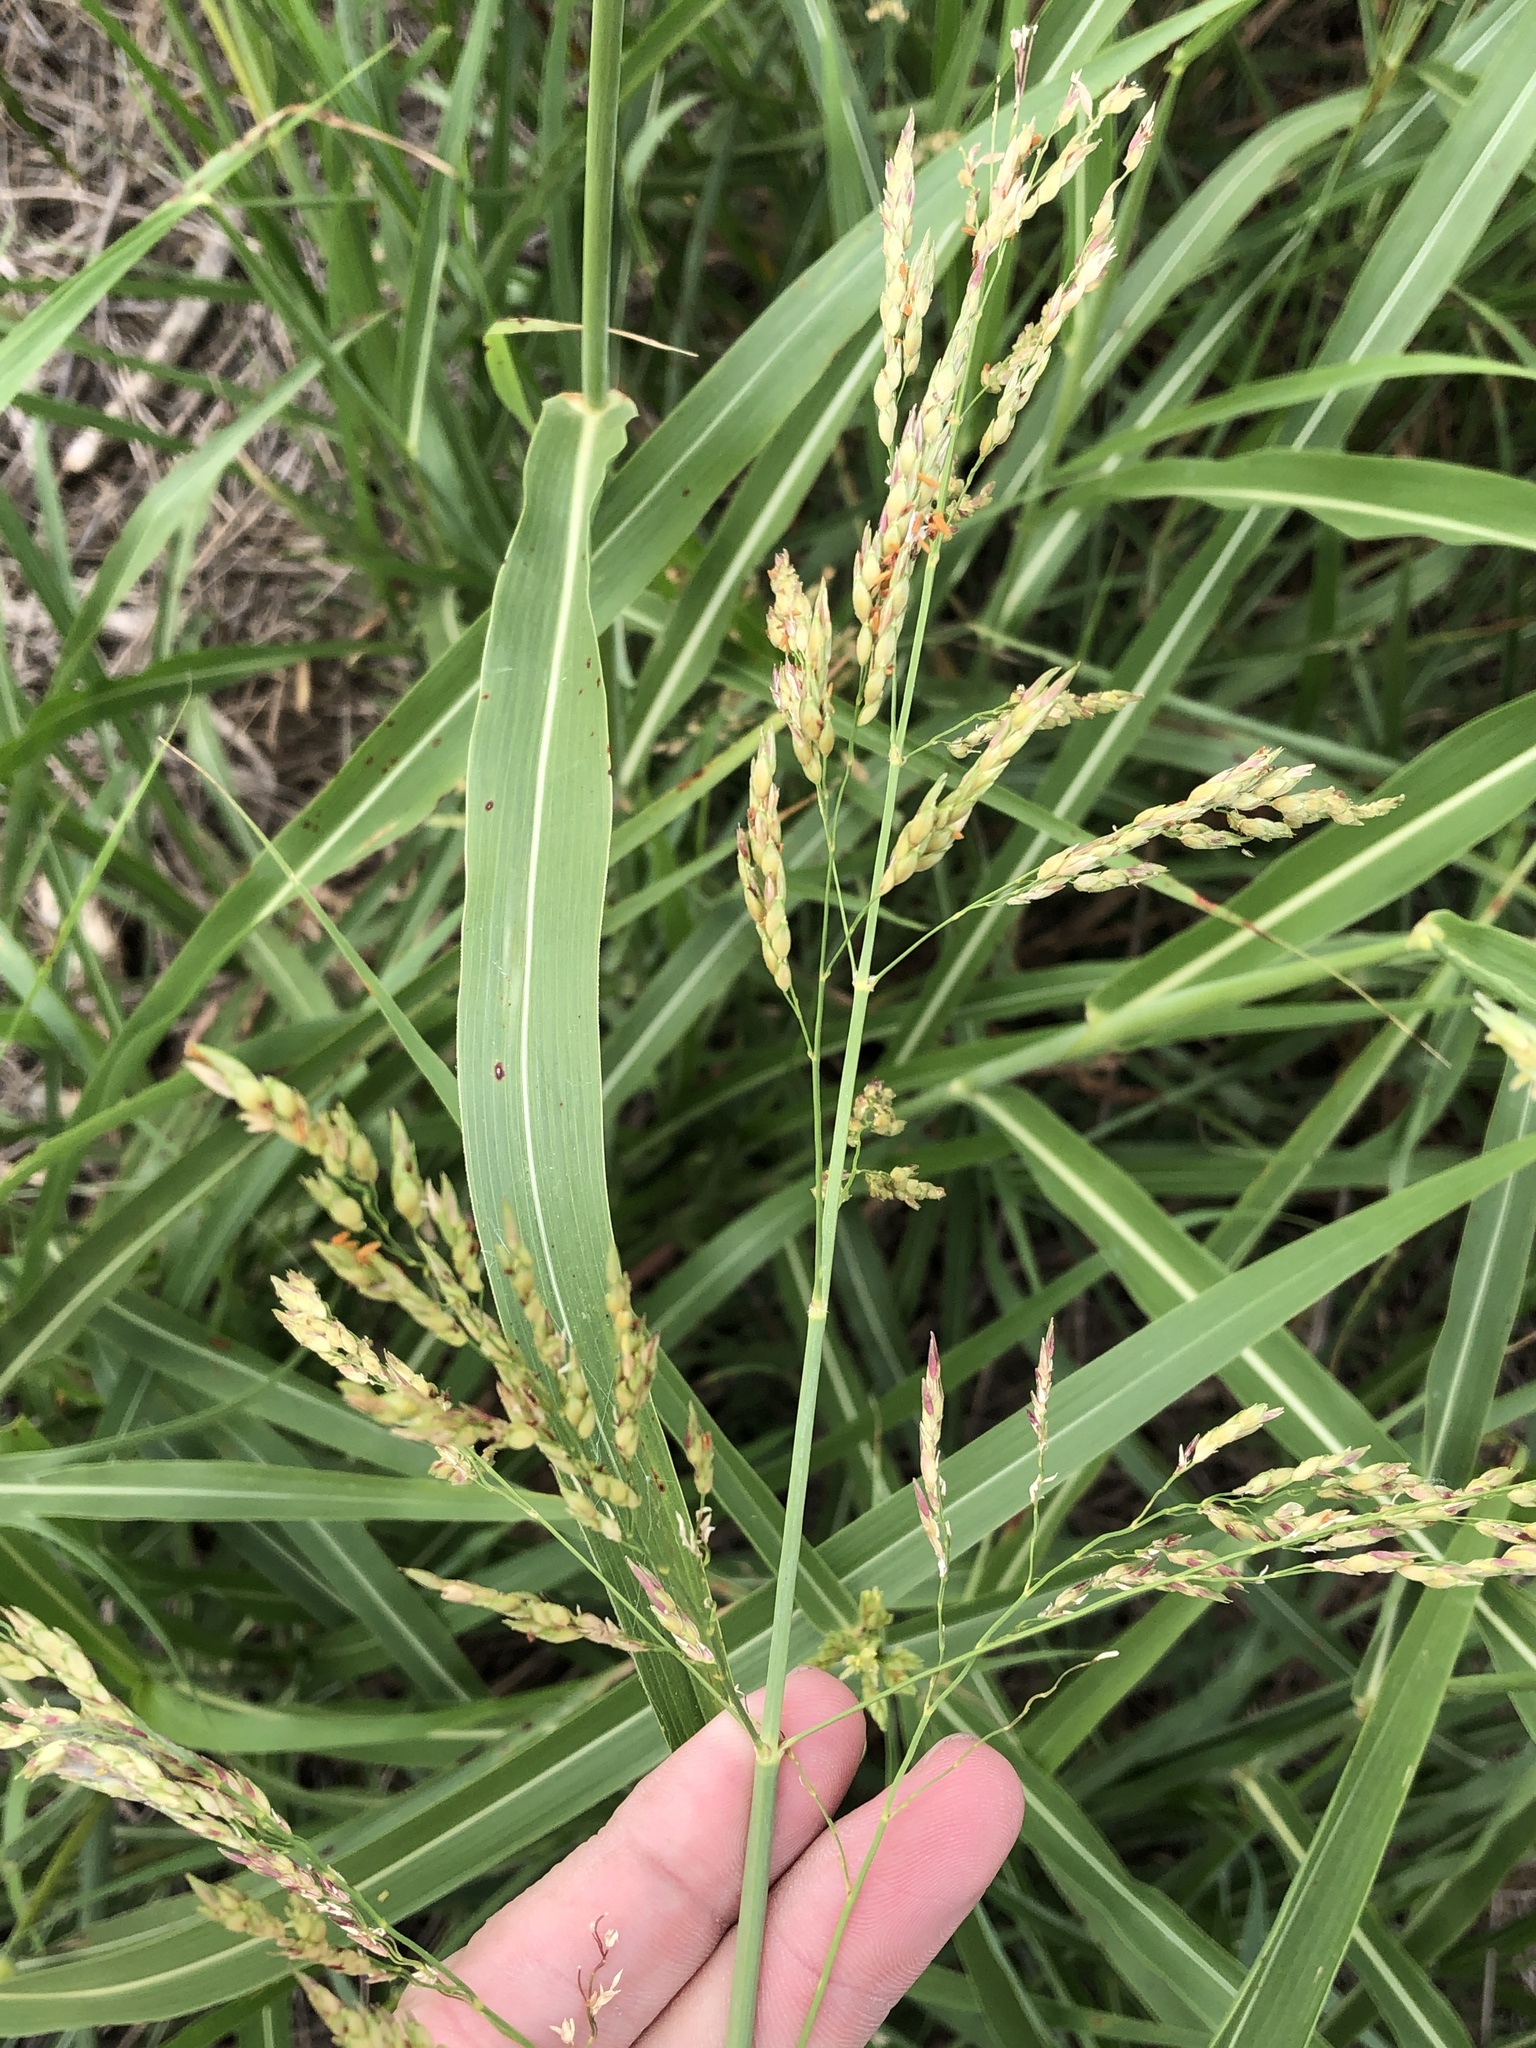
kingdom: Plantae
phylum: Tracheophyta
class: Liliopsida
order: Poales
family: Poaceae
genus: Sorghum
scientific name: Sorghum halepense
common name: Johnson-grass
